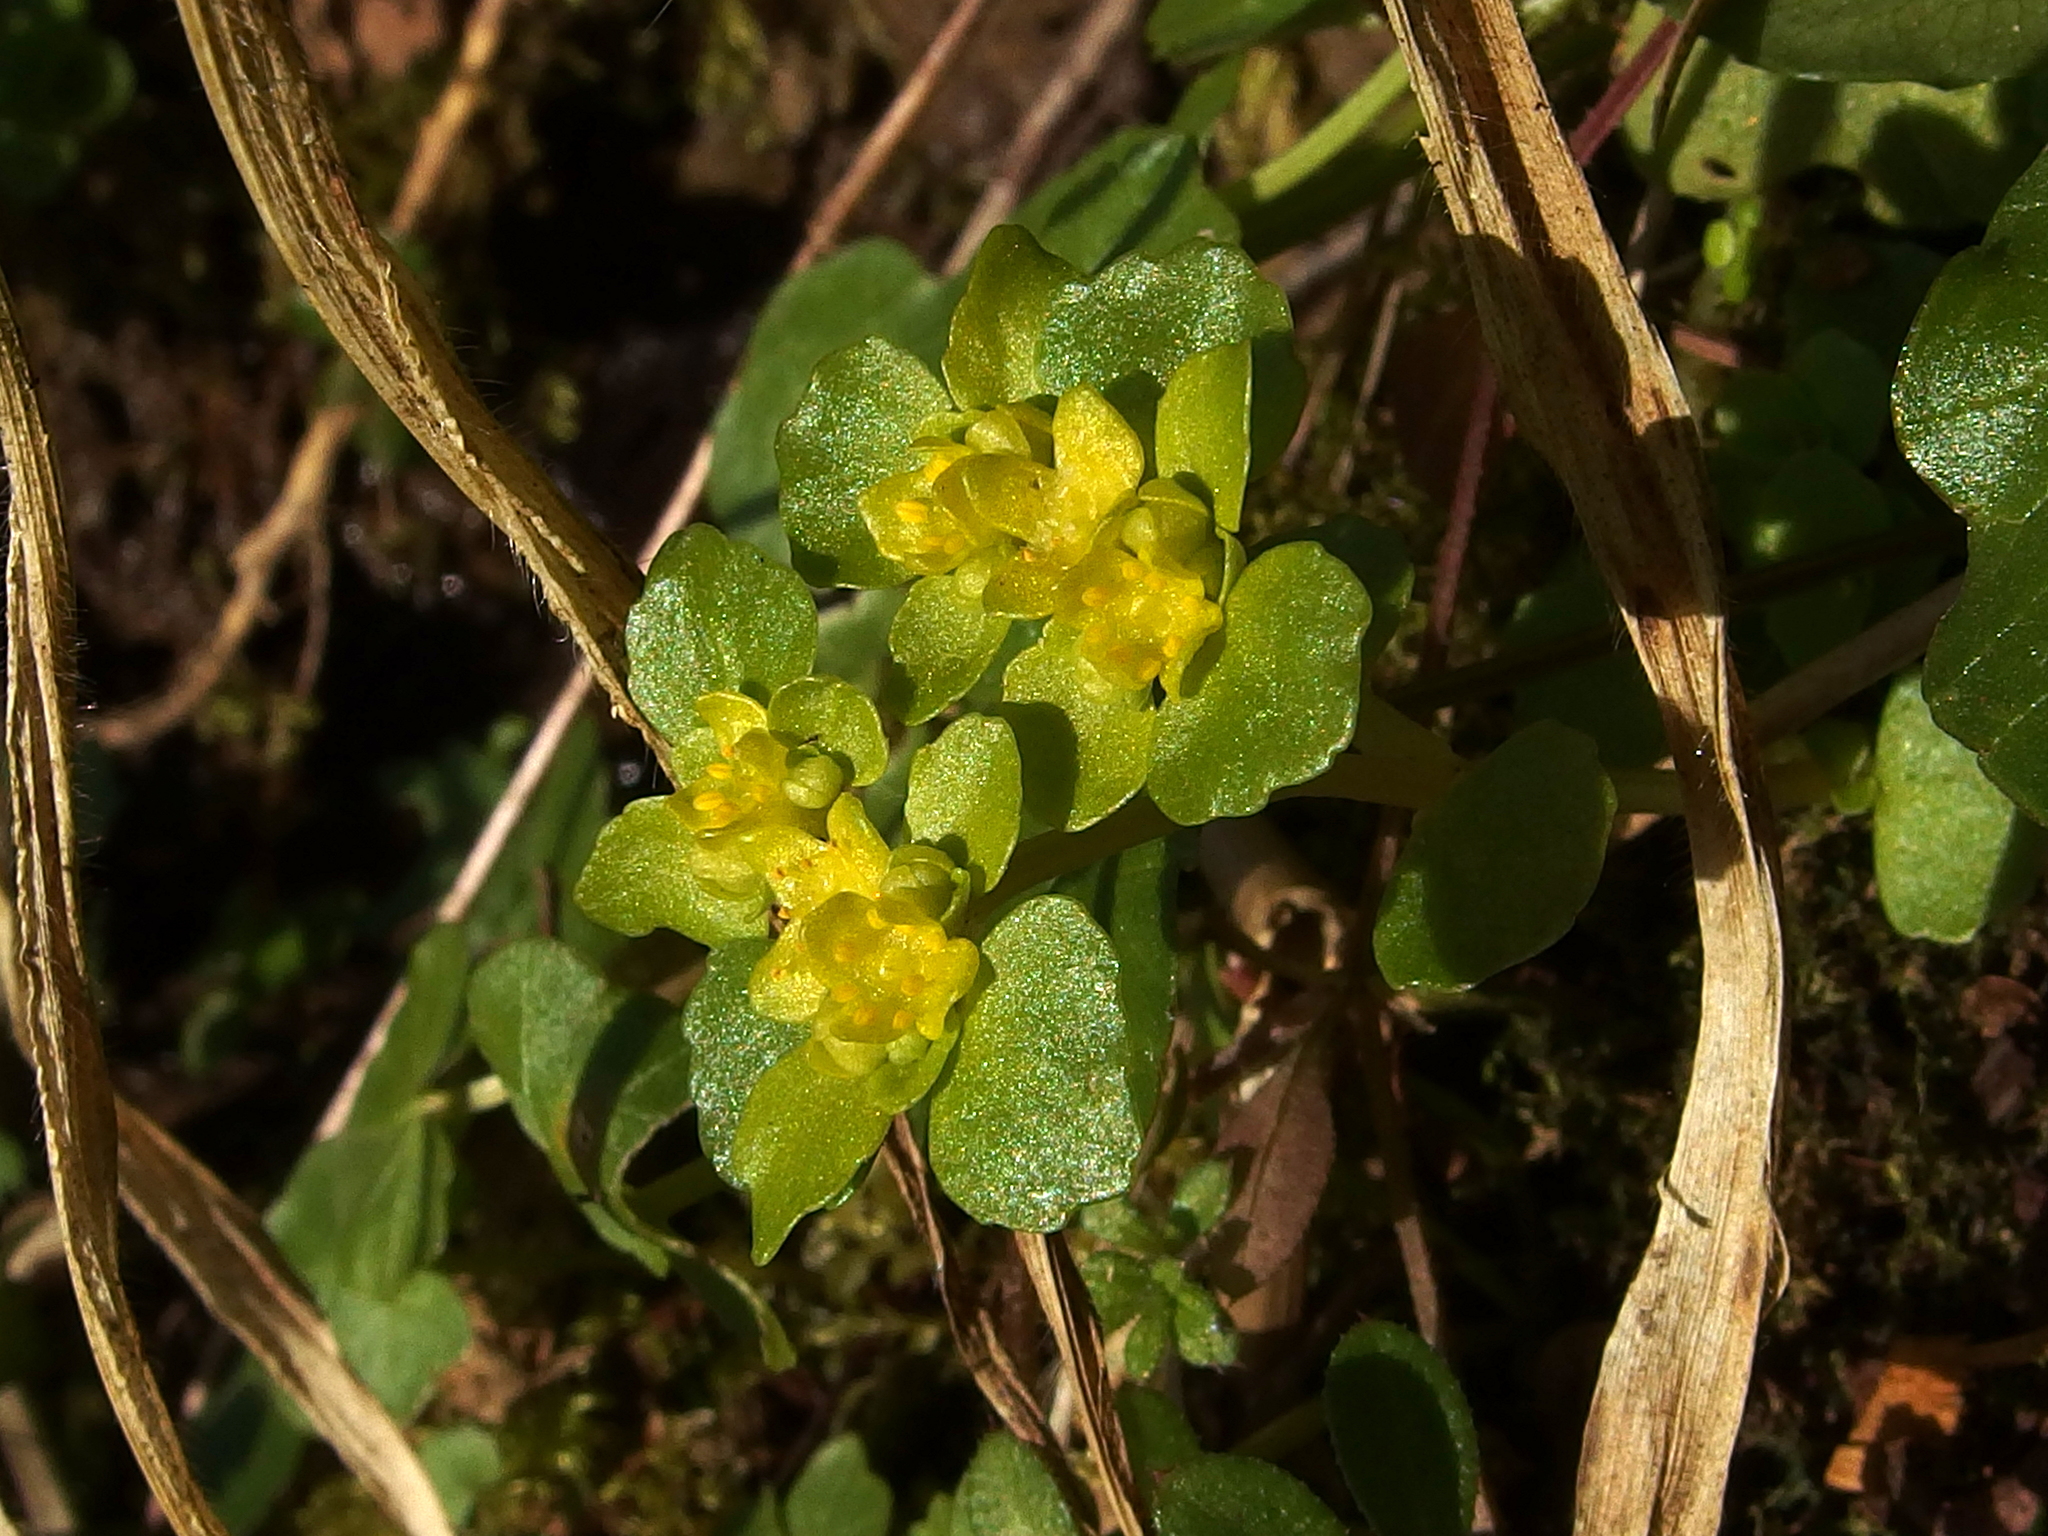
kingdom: Plantae
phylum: Tracheophyta
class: Magnoliopsida
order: Saxifragales
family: Saxifragaceae
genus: Chrysosplenium
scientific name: Chrysosplenium oppositifolium
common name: Opposite-leaved golden-saxifrage
